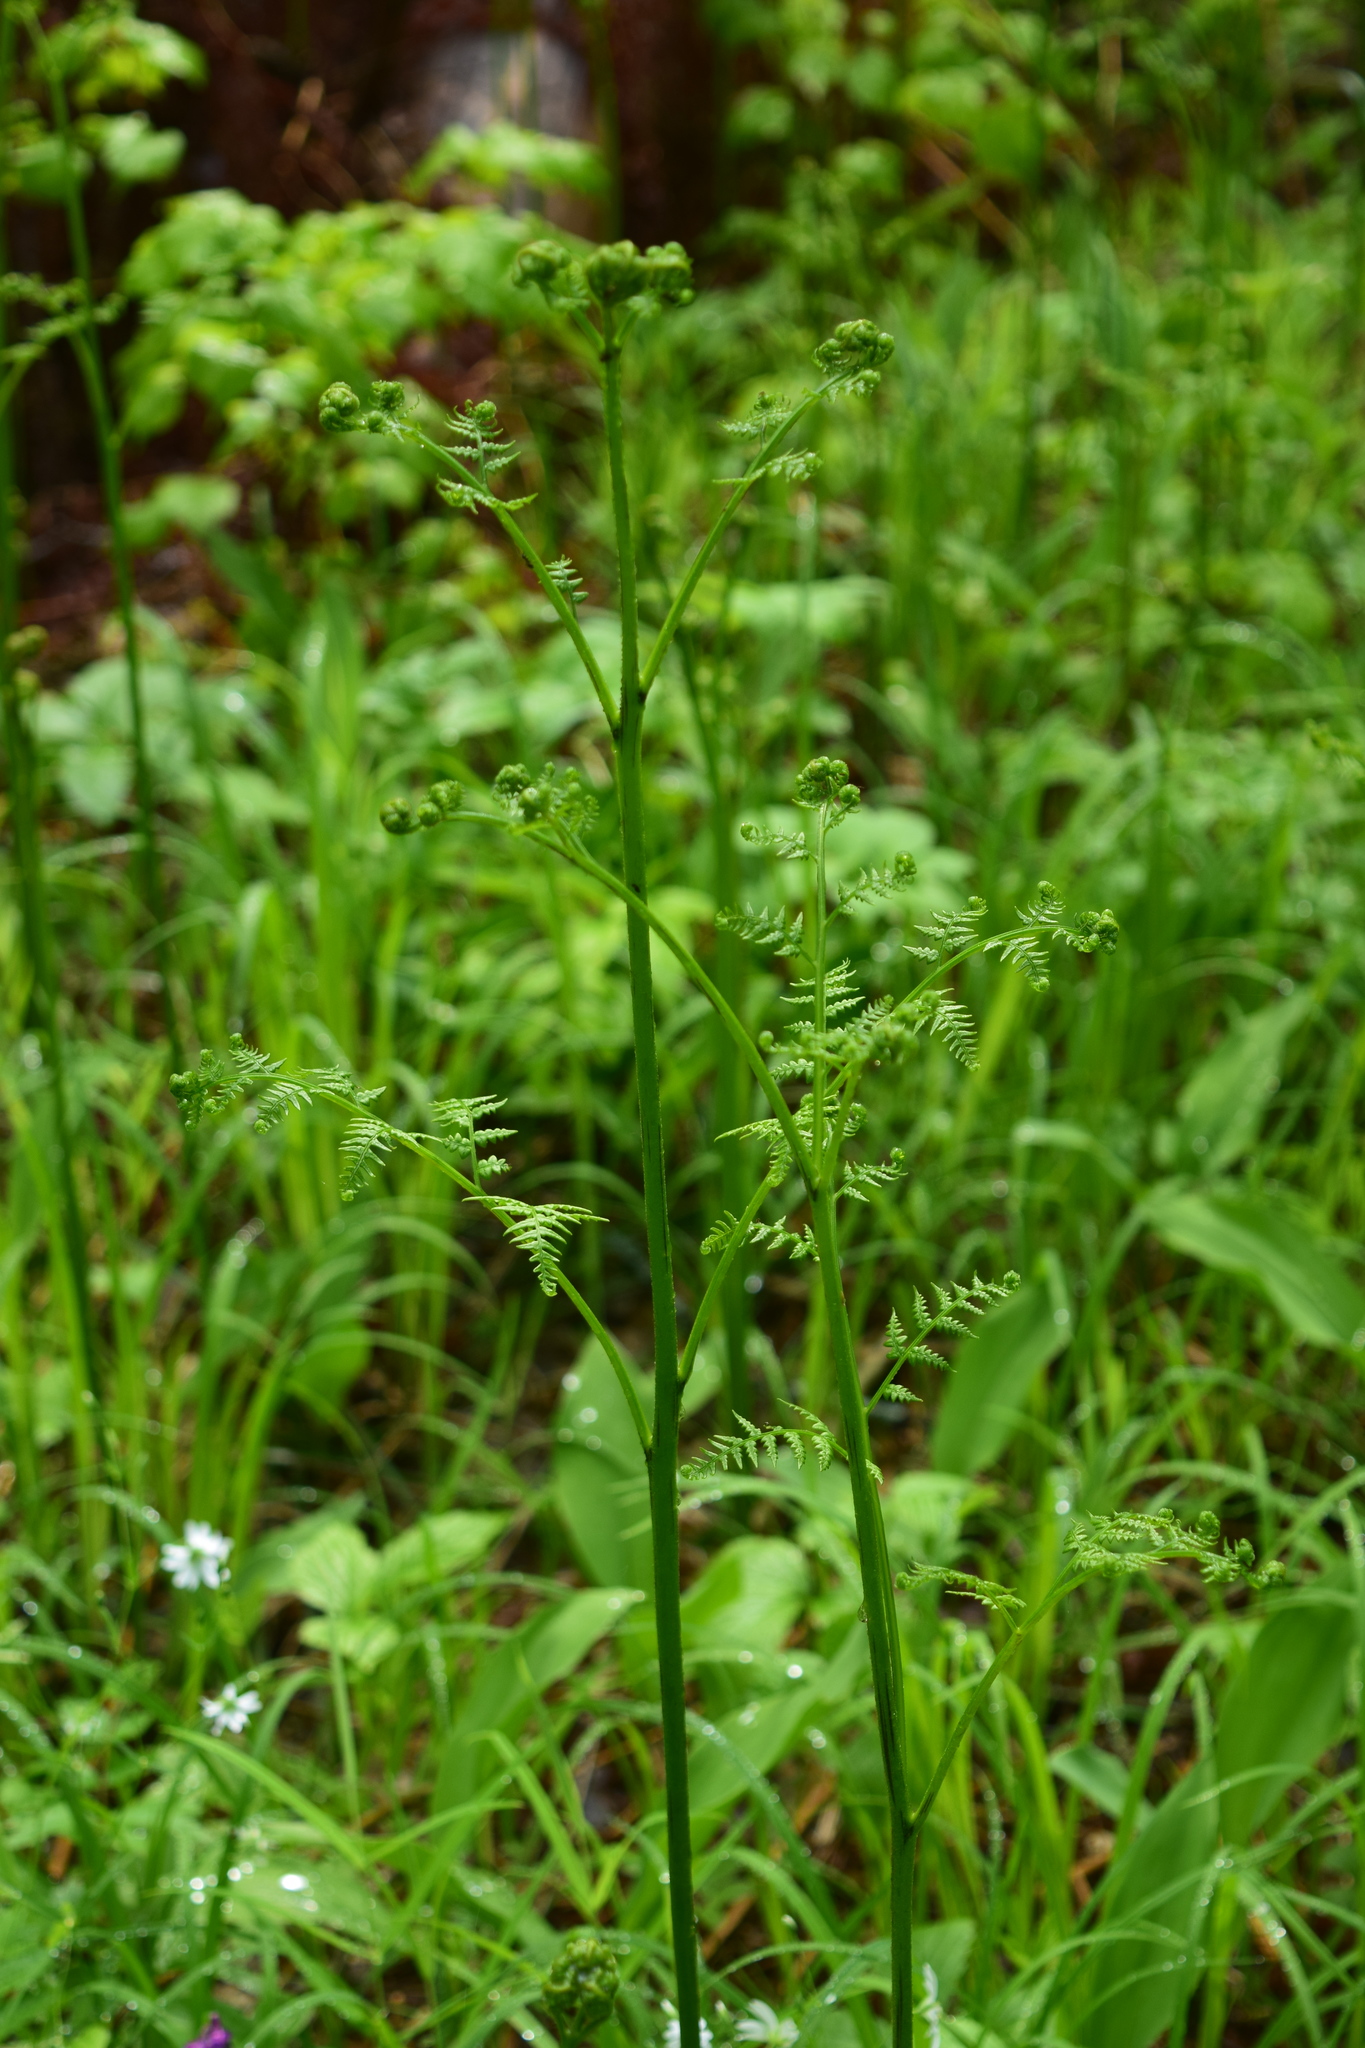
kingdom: Plantae
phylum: Tracheophyta
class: Polypodiopsida
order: Polypodiales
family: Dennstaedtiaceae
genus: Pteridium
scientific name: Pteridium aquilinum
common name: Bracken
